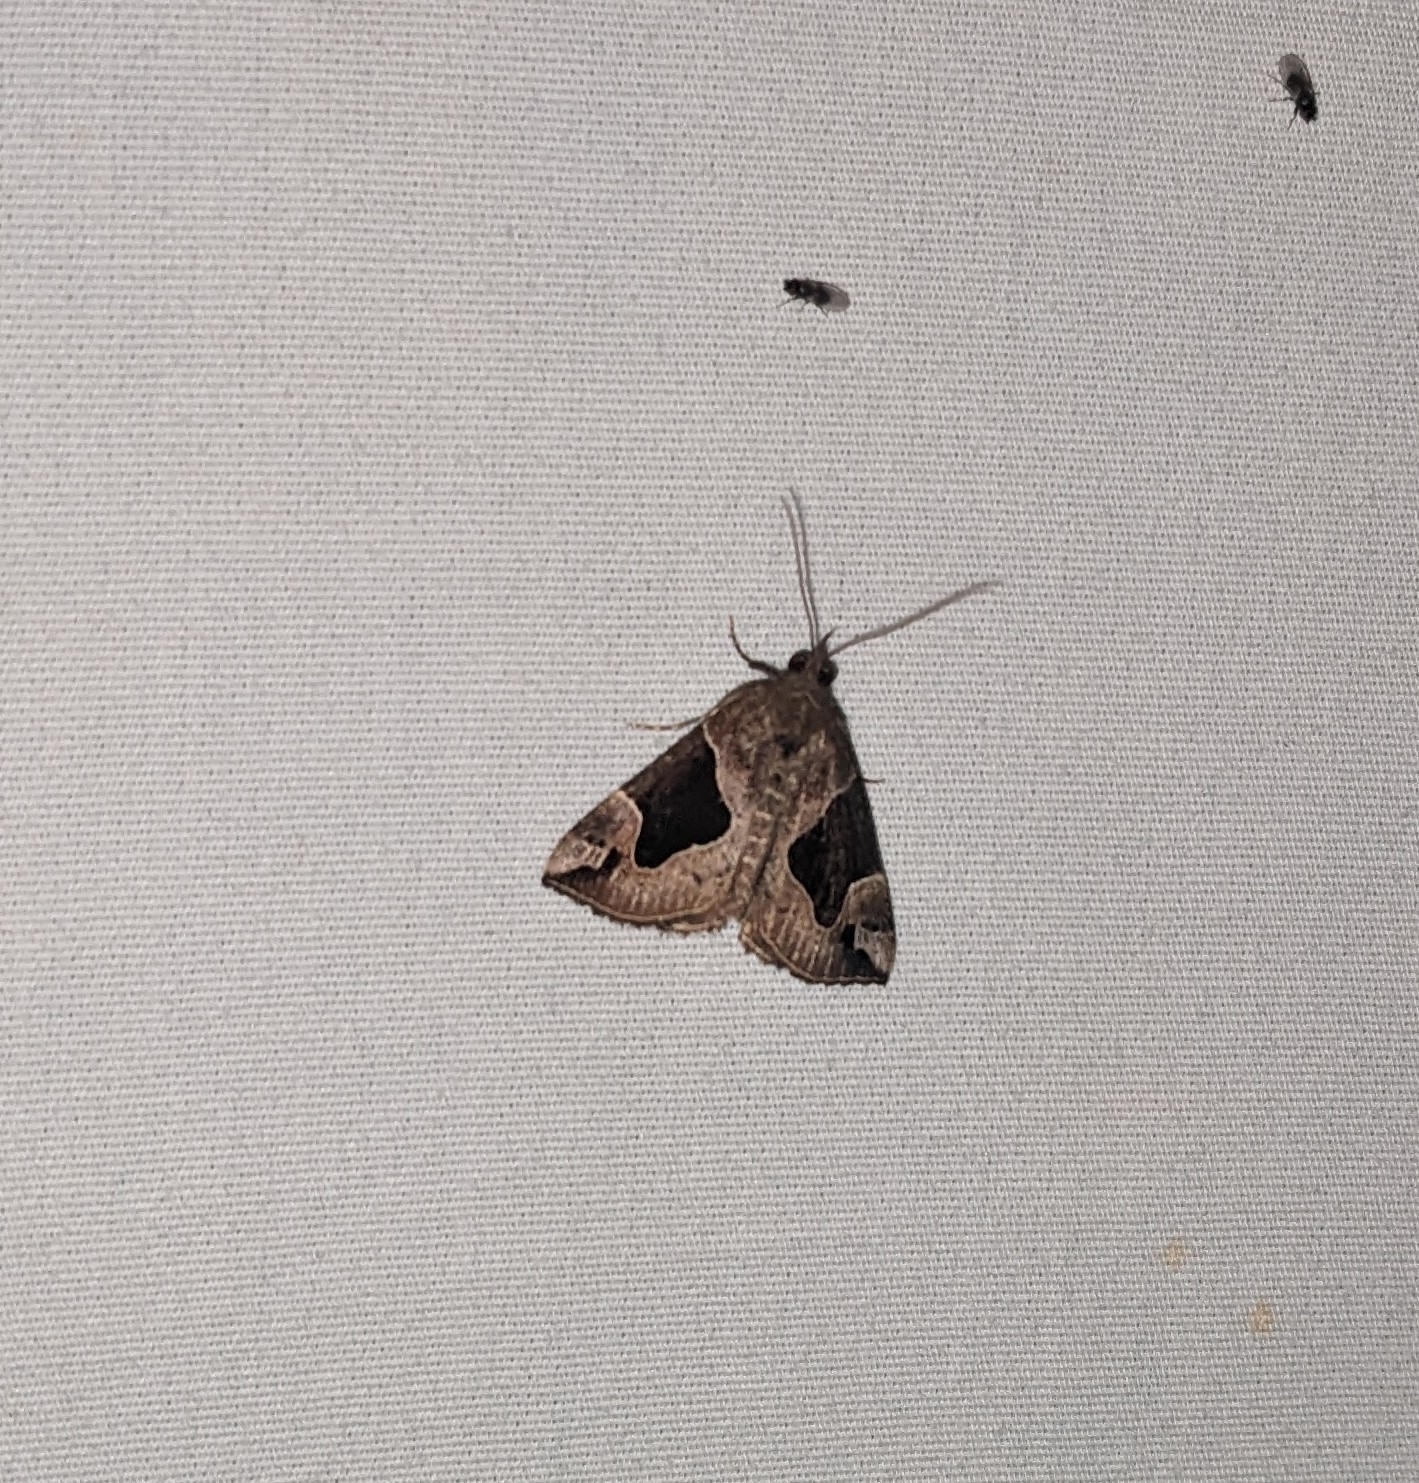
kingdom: Animalia
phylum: Arthropoda
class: Insecta
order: Lepidoptera
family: Erebidae
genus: Hypena
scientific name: Hypena manalis
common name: Flowing-line bomolocha moth
